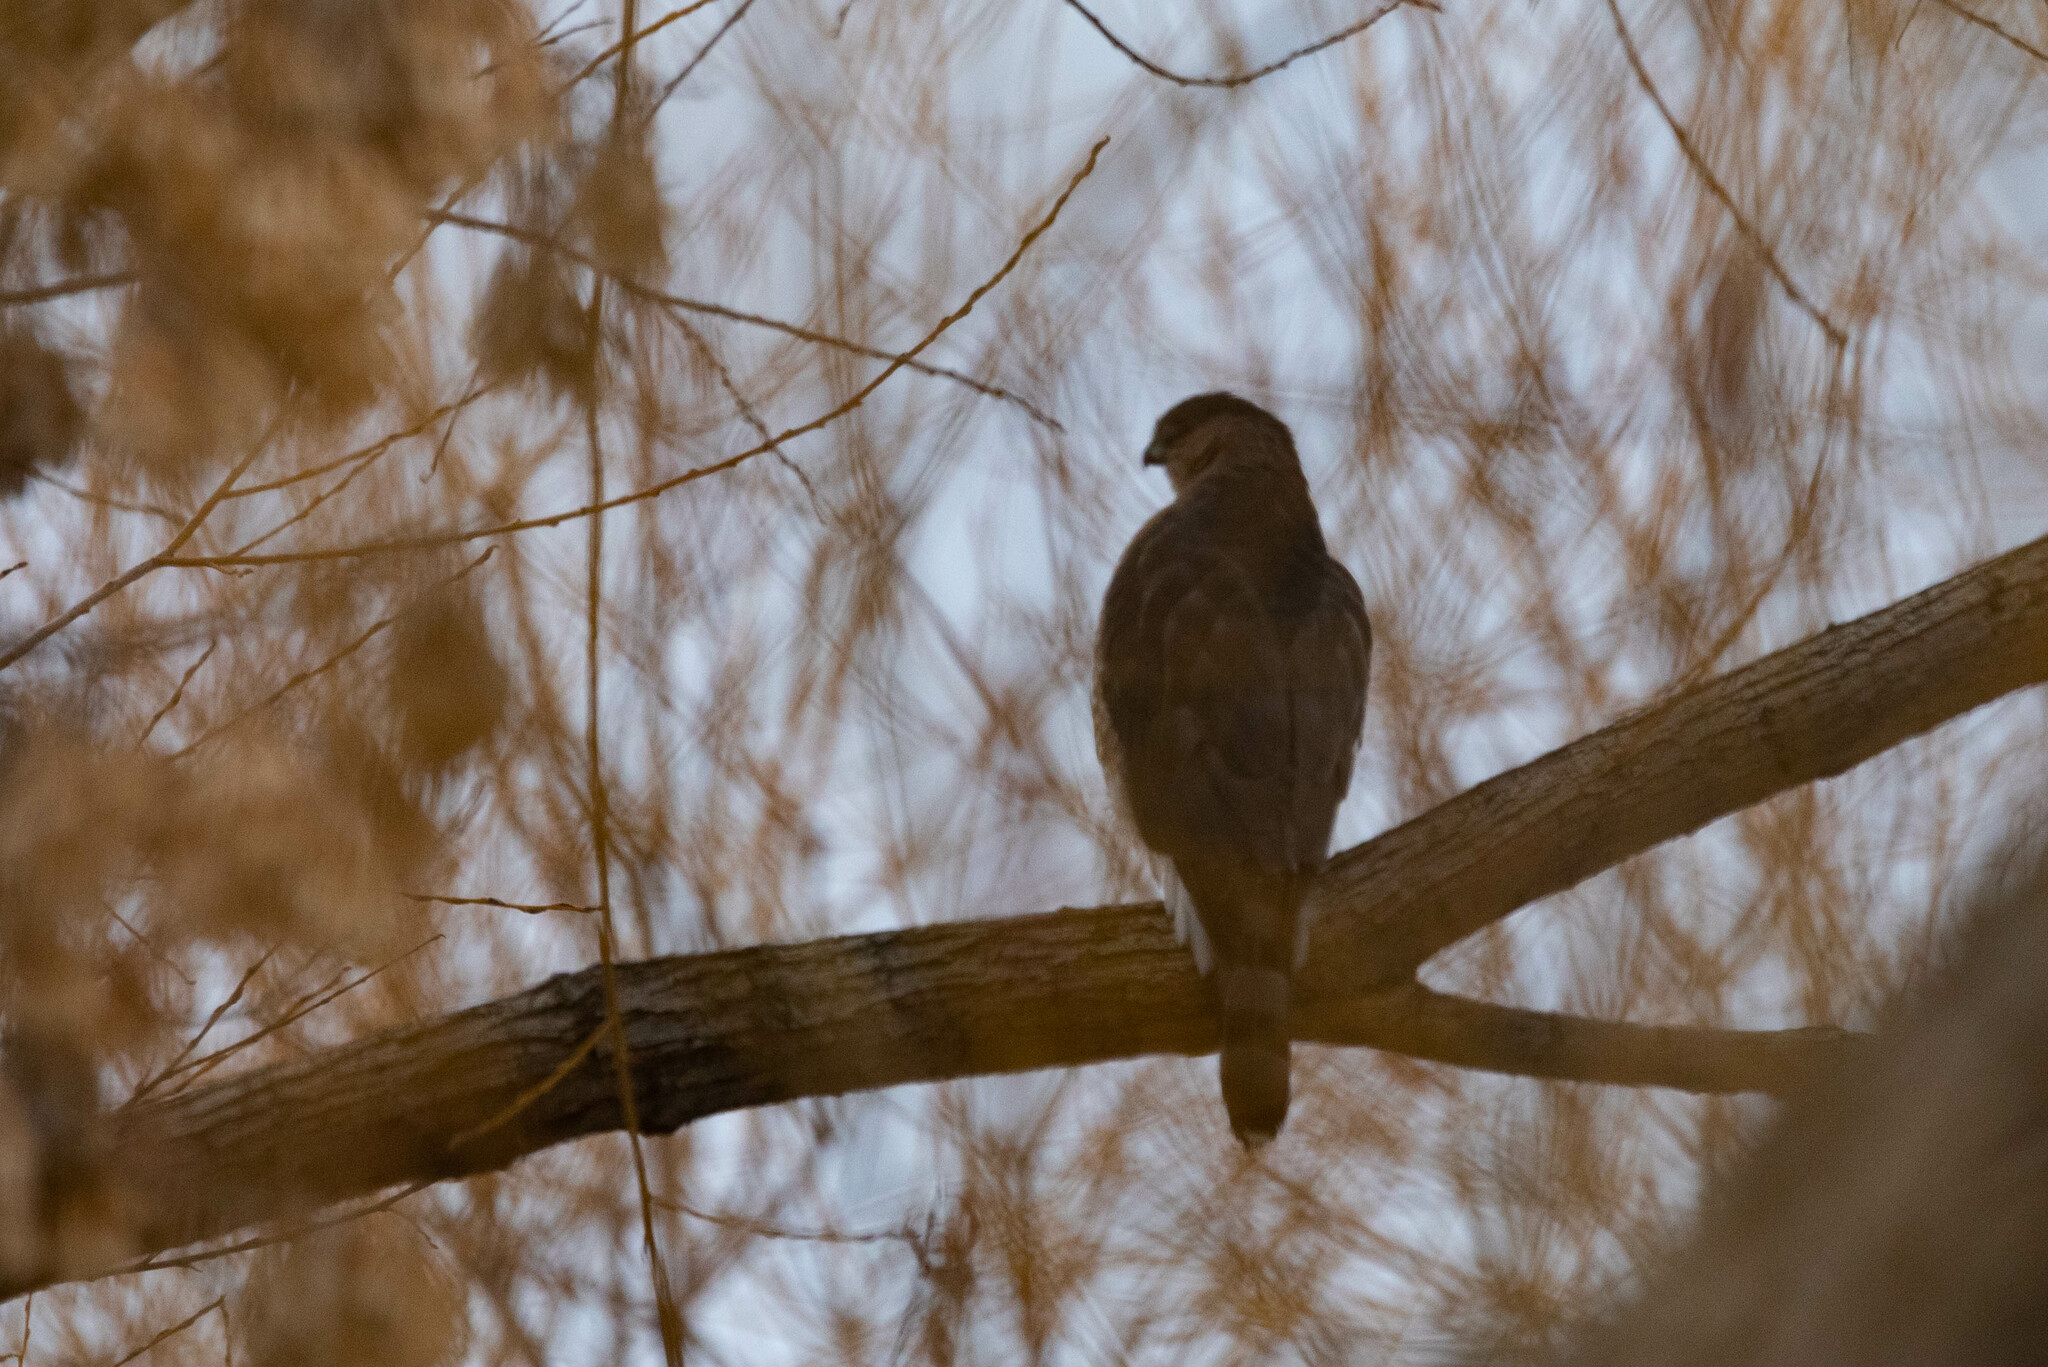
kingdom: Animalia
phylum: Chordata
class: Aves
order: Accipitriformes
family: Accipitridae
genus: Accipiter
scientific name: Accipiter cooperii
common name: Cooper's hawk
